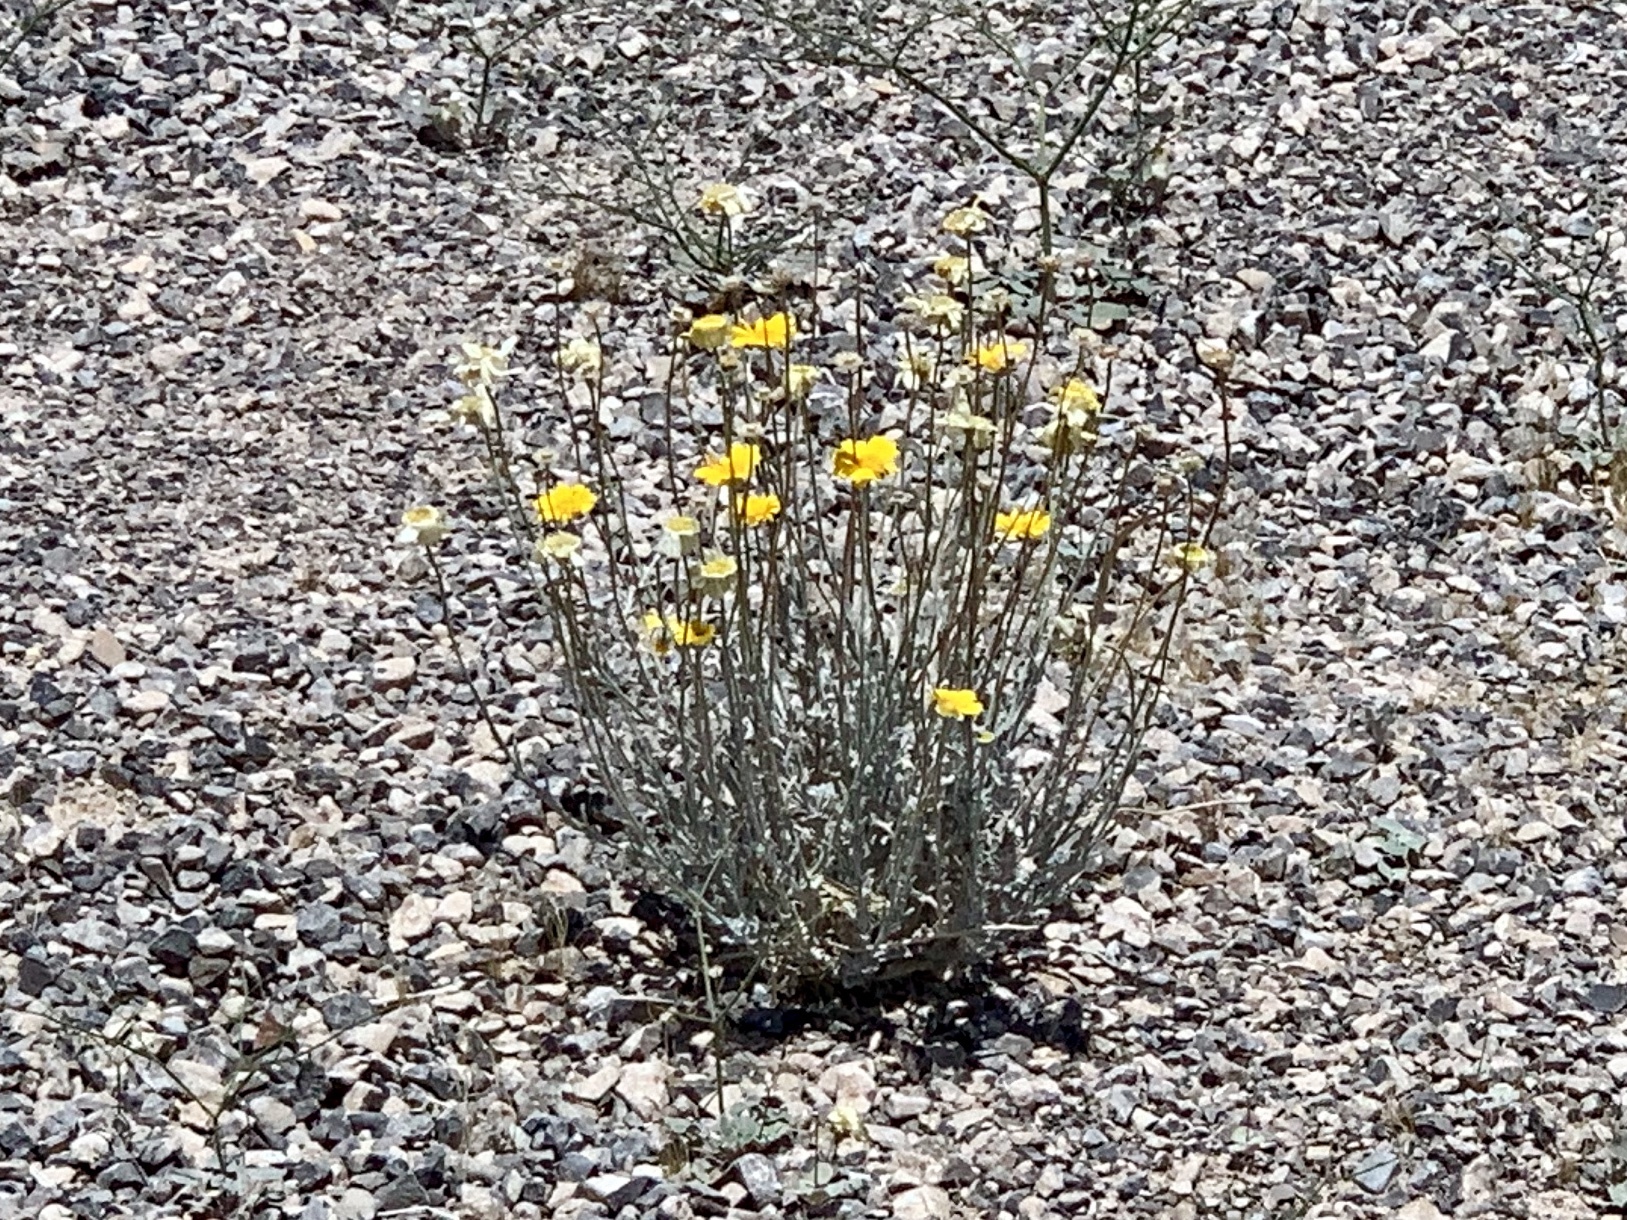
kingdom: Plantae
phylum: Tracheophyta
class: Magnoliopsida
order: Asterales
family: Asteraceae
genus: Baileya
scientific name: Baileya multiradiata
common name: Desert-marigold
